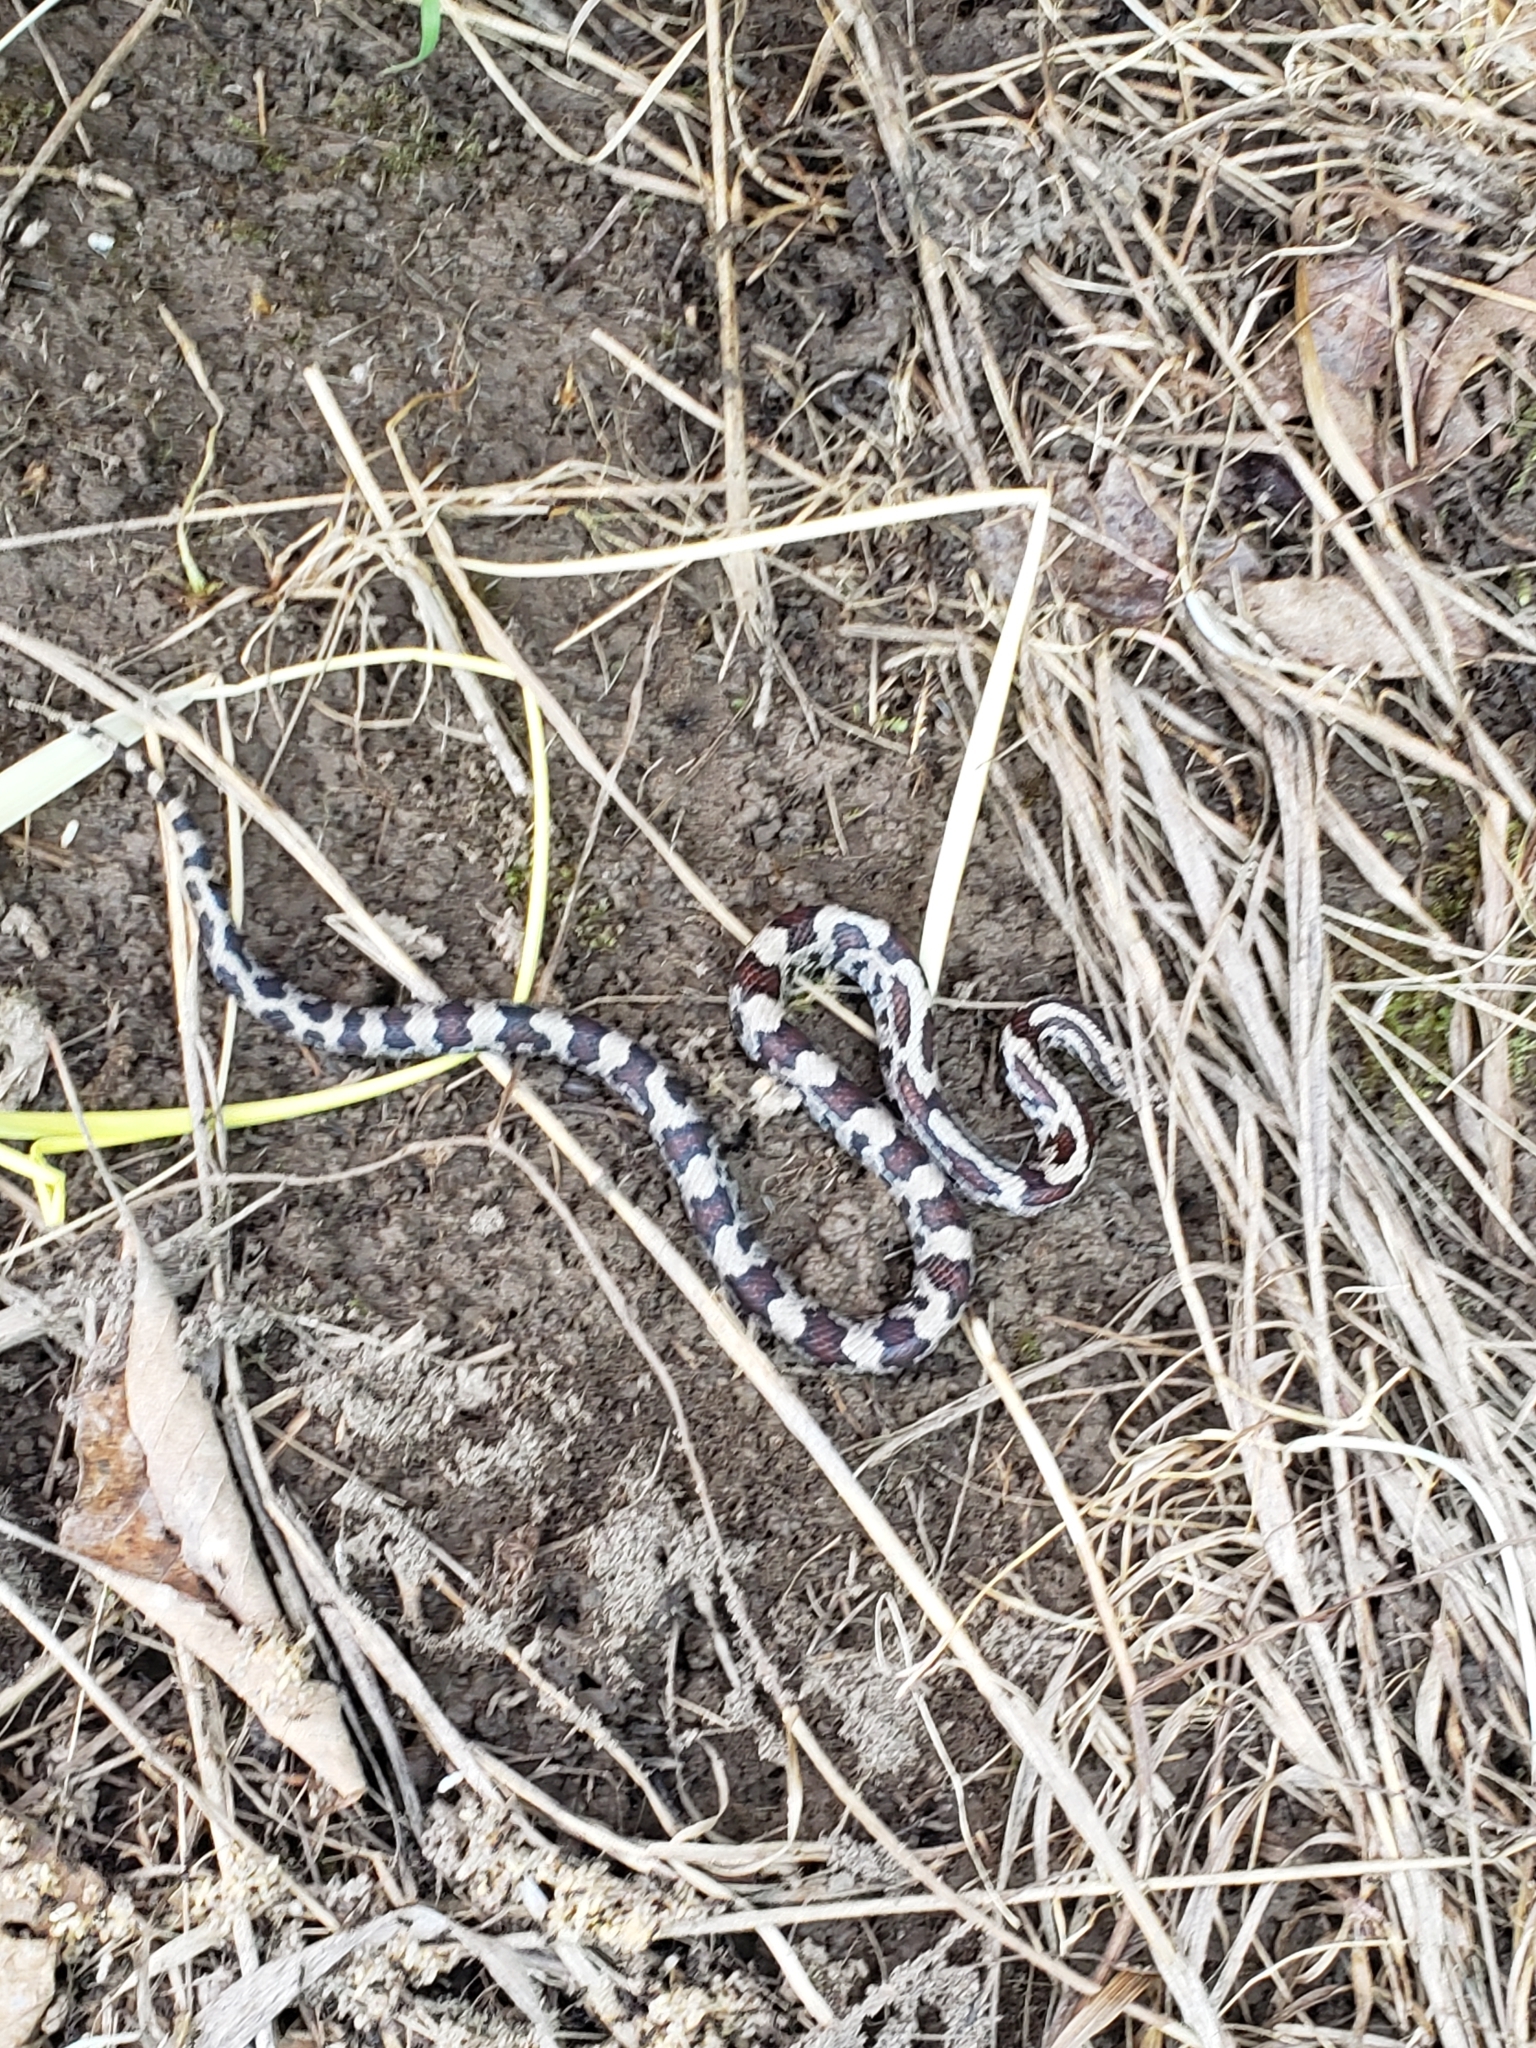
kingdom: Animalia
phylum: Chordata
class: Squamata
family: Colubridae
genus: Lampropeltis
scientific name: Lampropeltis triangulum
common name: Eastern milksnake
